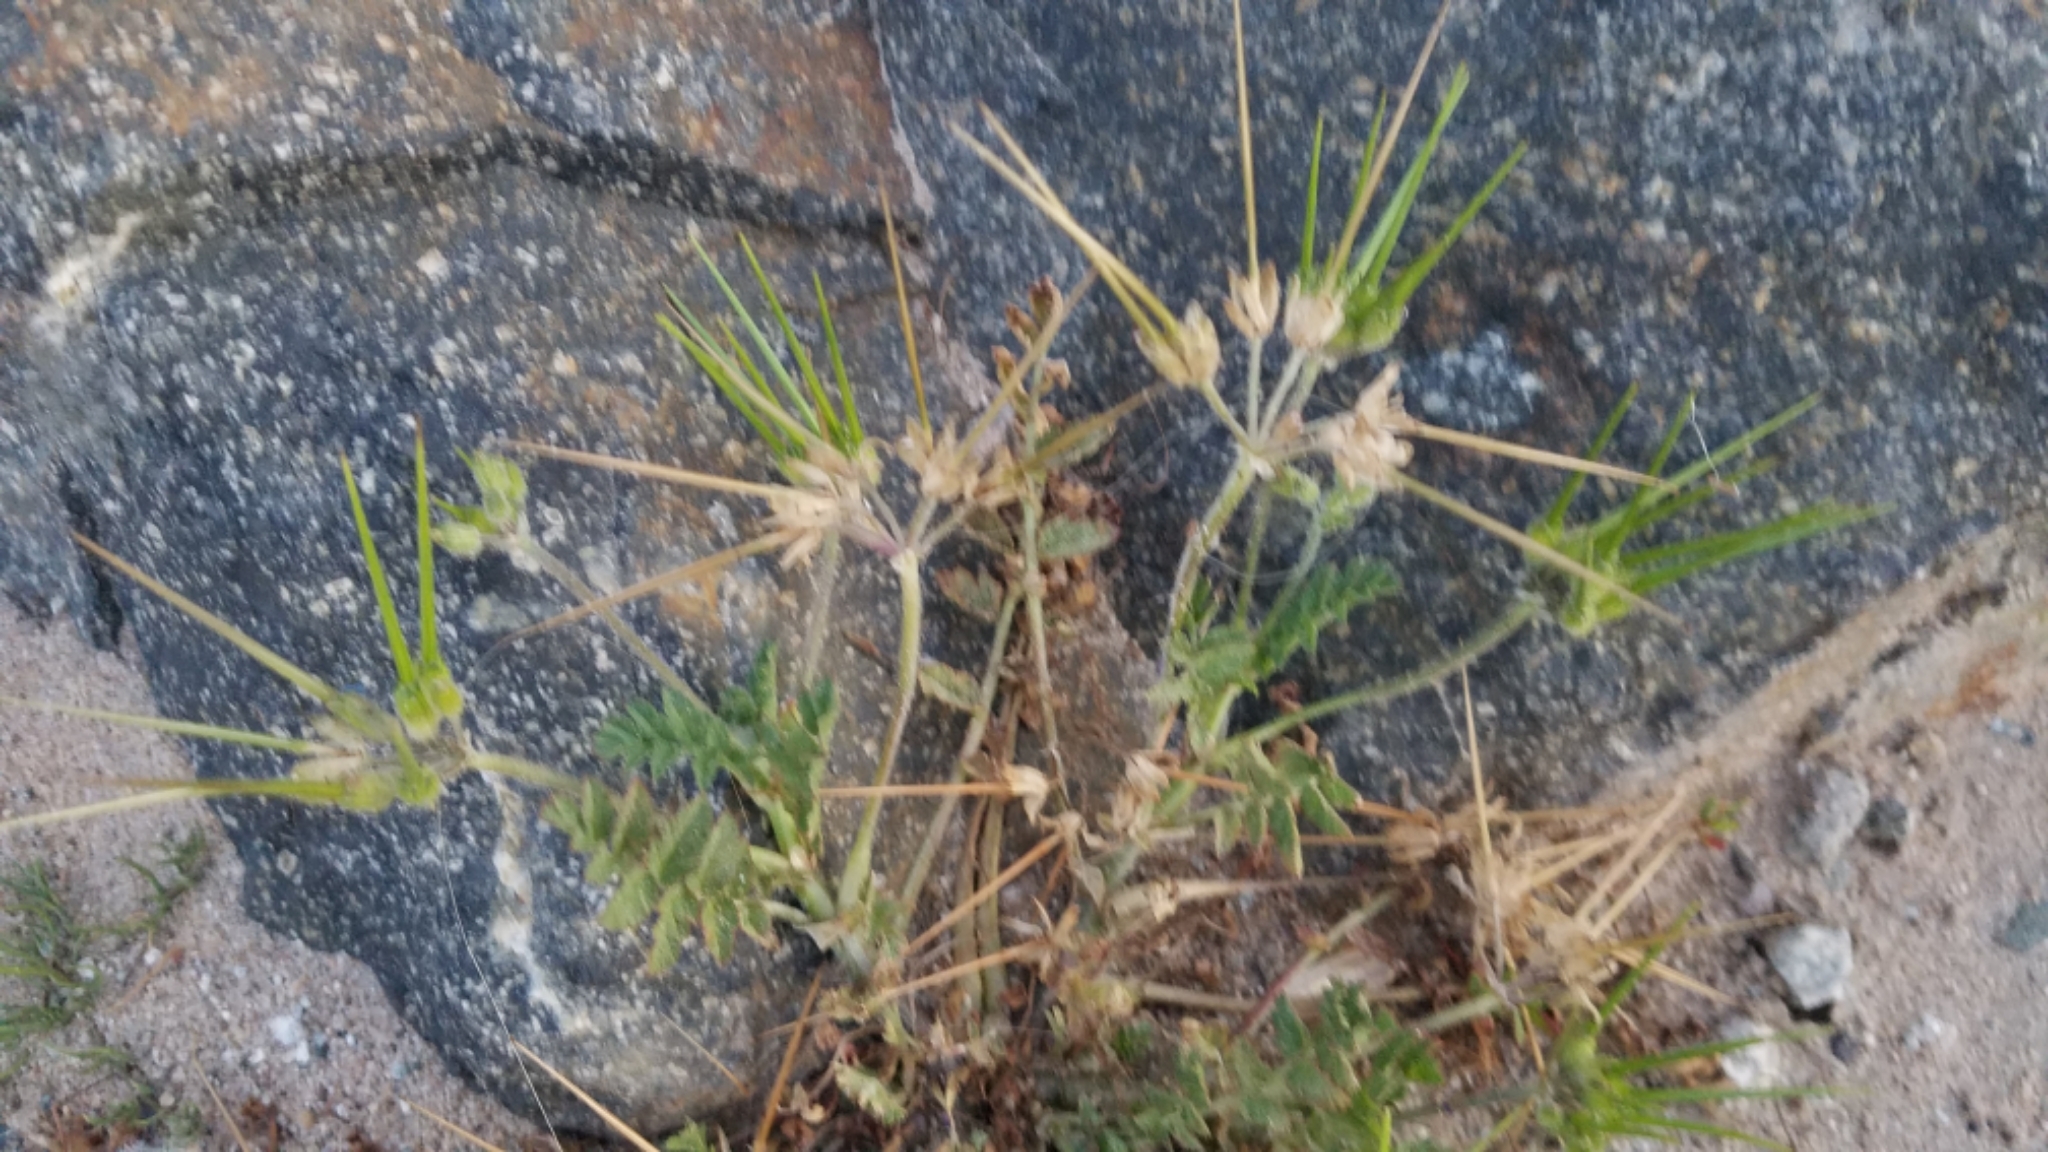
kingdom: Plantae
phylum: Tracheophyta
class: Magnoliopsida
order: Geraniales
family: Geraniaceae
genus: Erodium
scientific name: Erodium moschatum
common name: Musk stork's-bill
